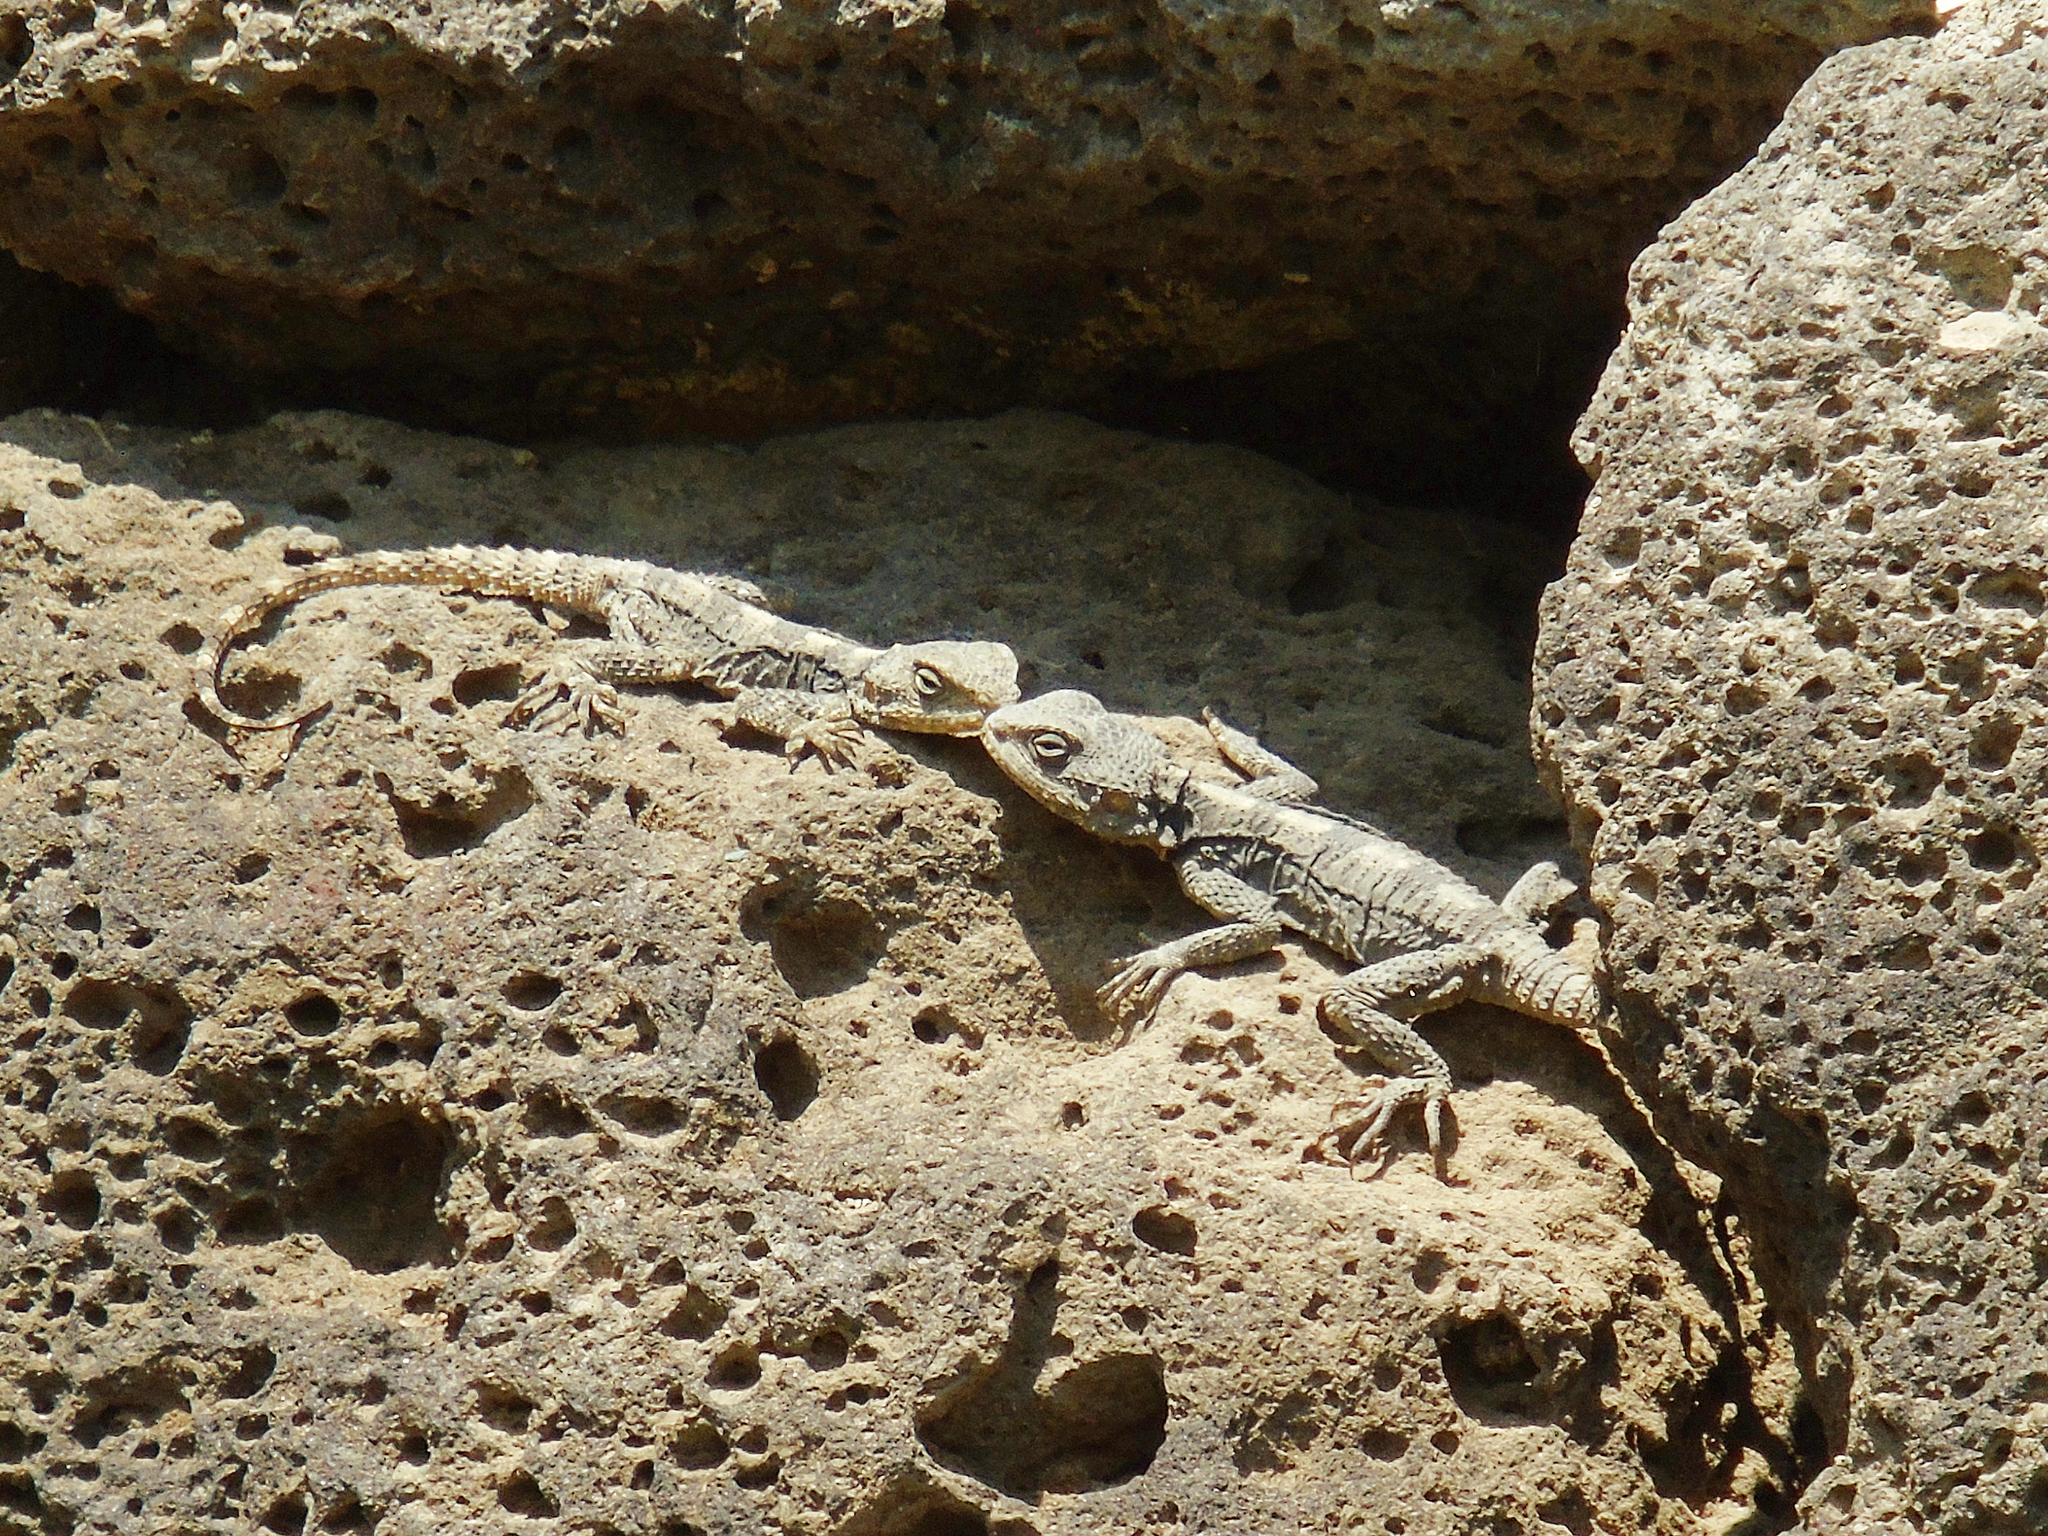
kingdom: Animalia
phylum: Chordata
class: Squamata
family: Agamidae
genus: Stellagama
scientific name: Stellagama stellio
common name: Starred agama
